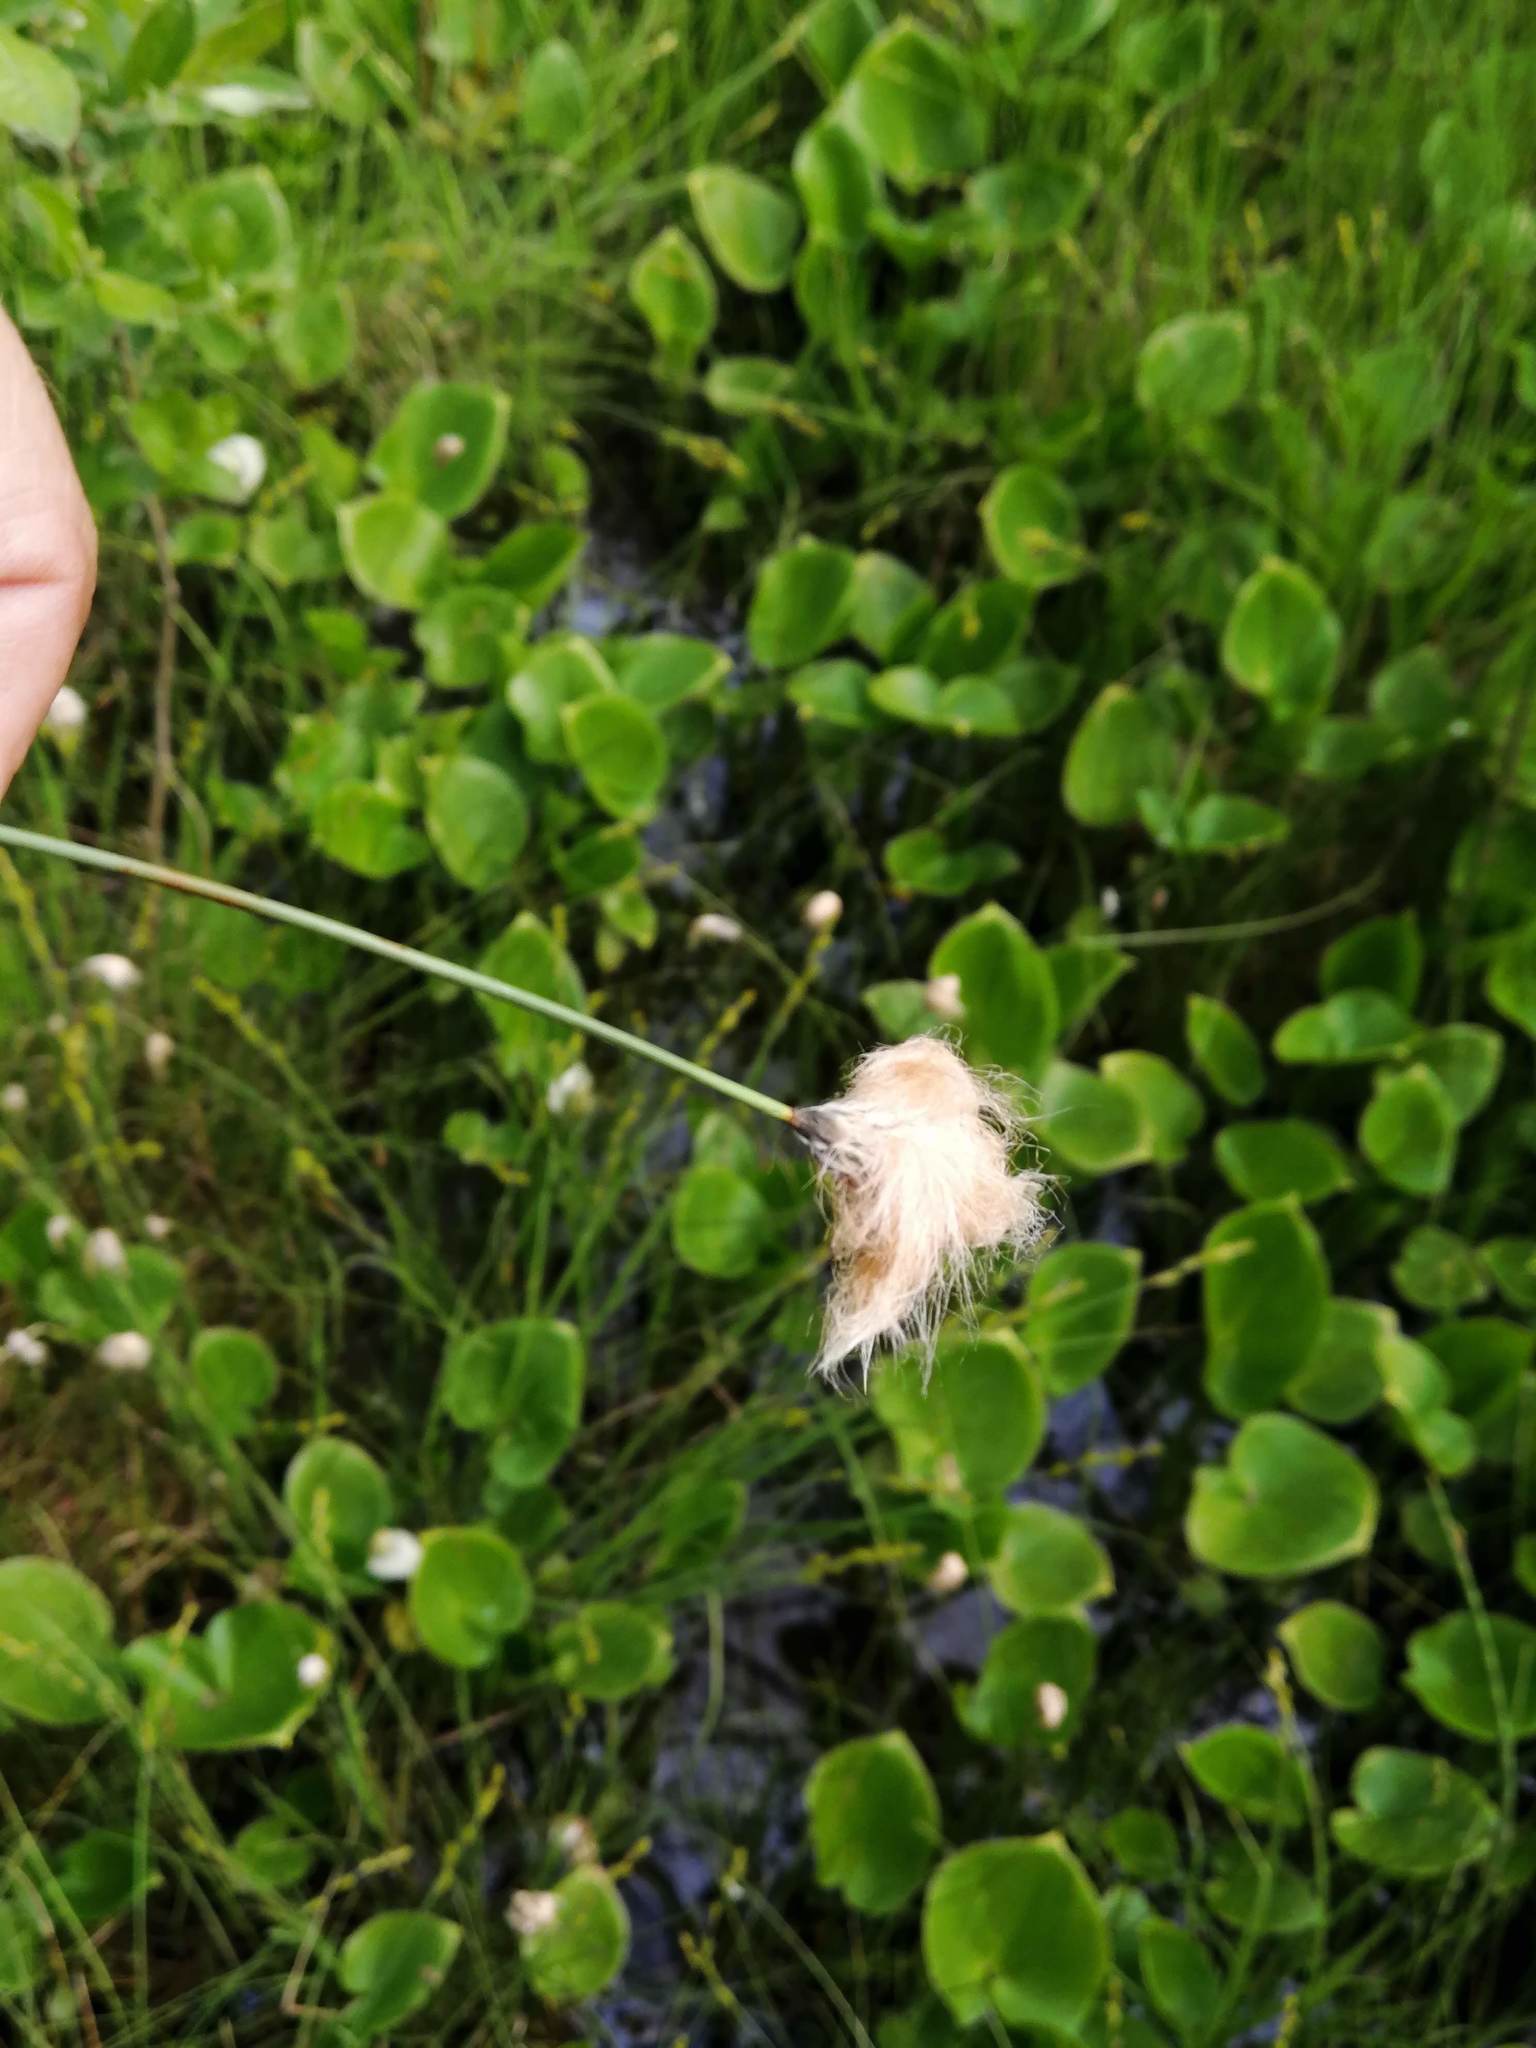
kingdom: Plantae
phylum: Tracheophyta
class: Liliopsida
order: Poales
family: Cyperaceae
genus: Eriophorum
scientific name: Eriophorum chamissonis
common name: Chamisso's cottongrass
